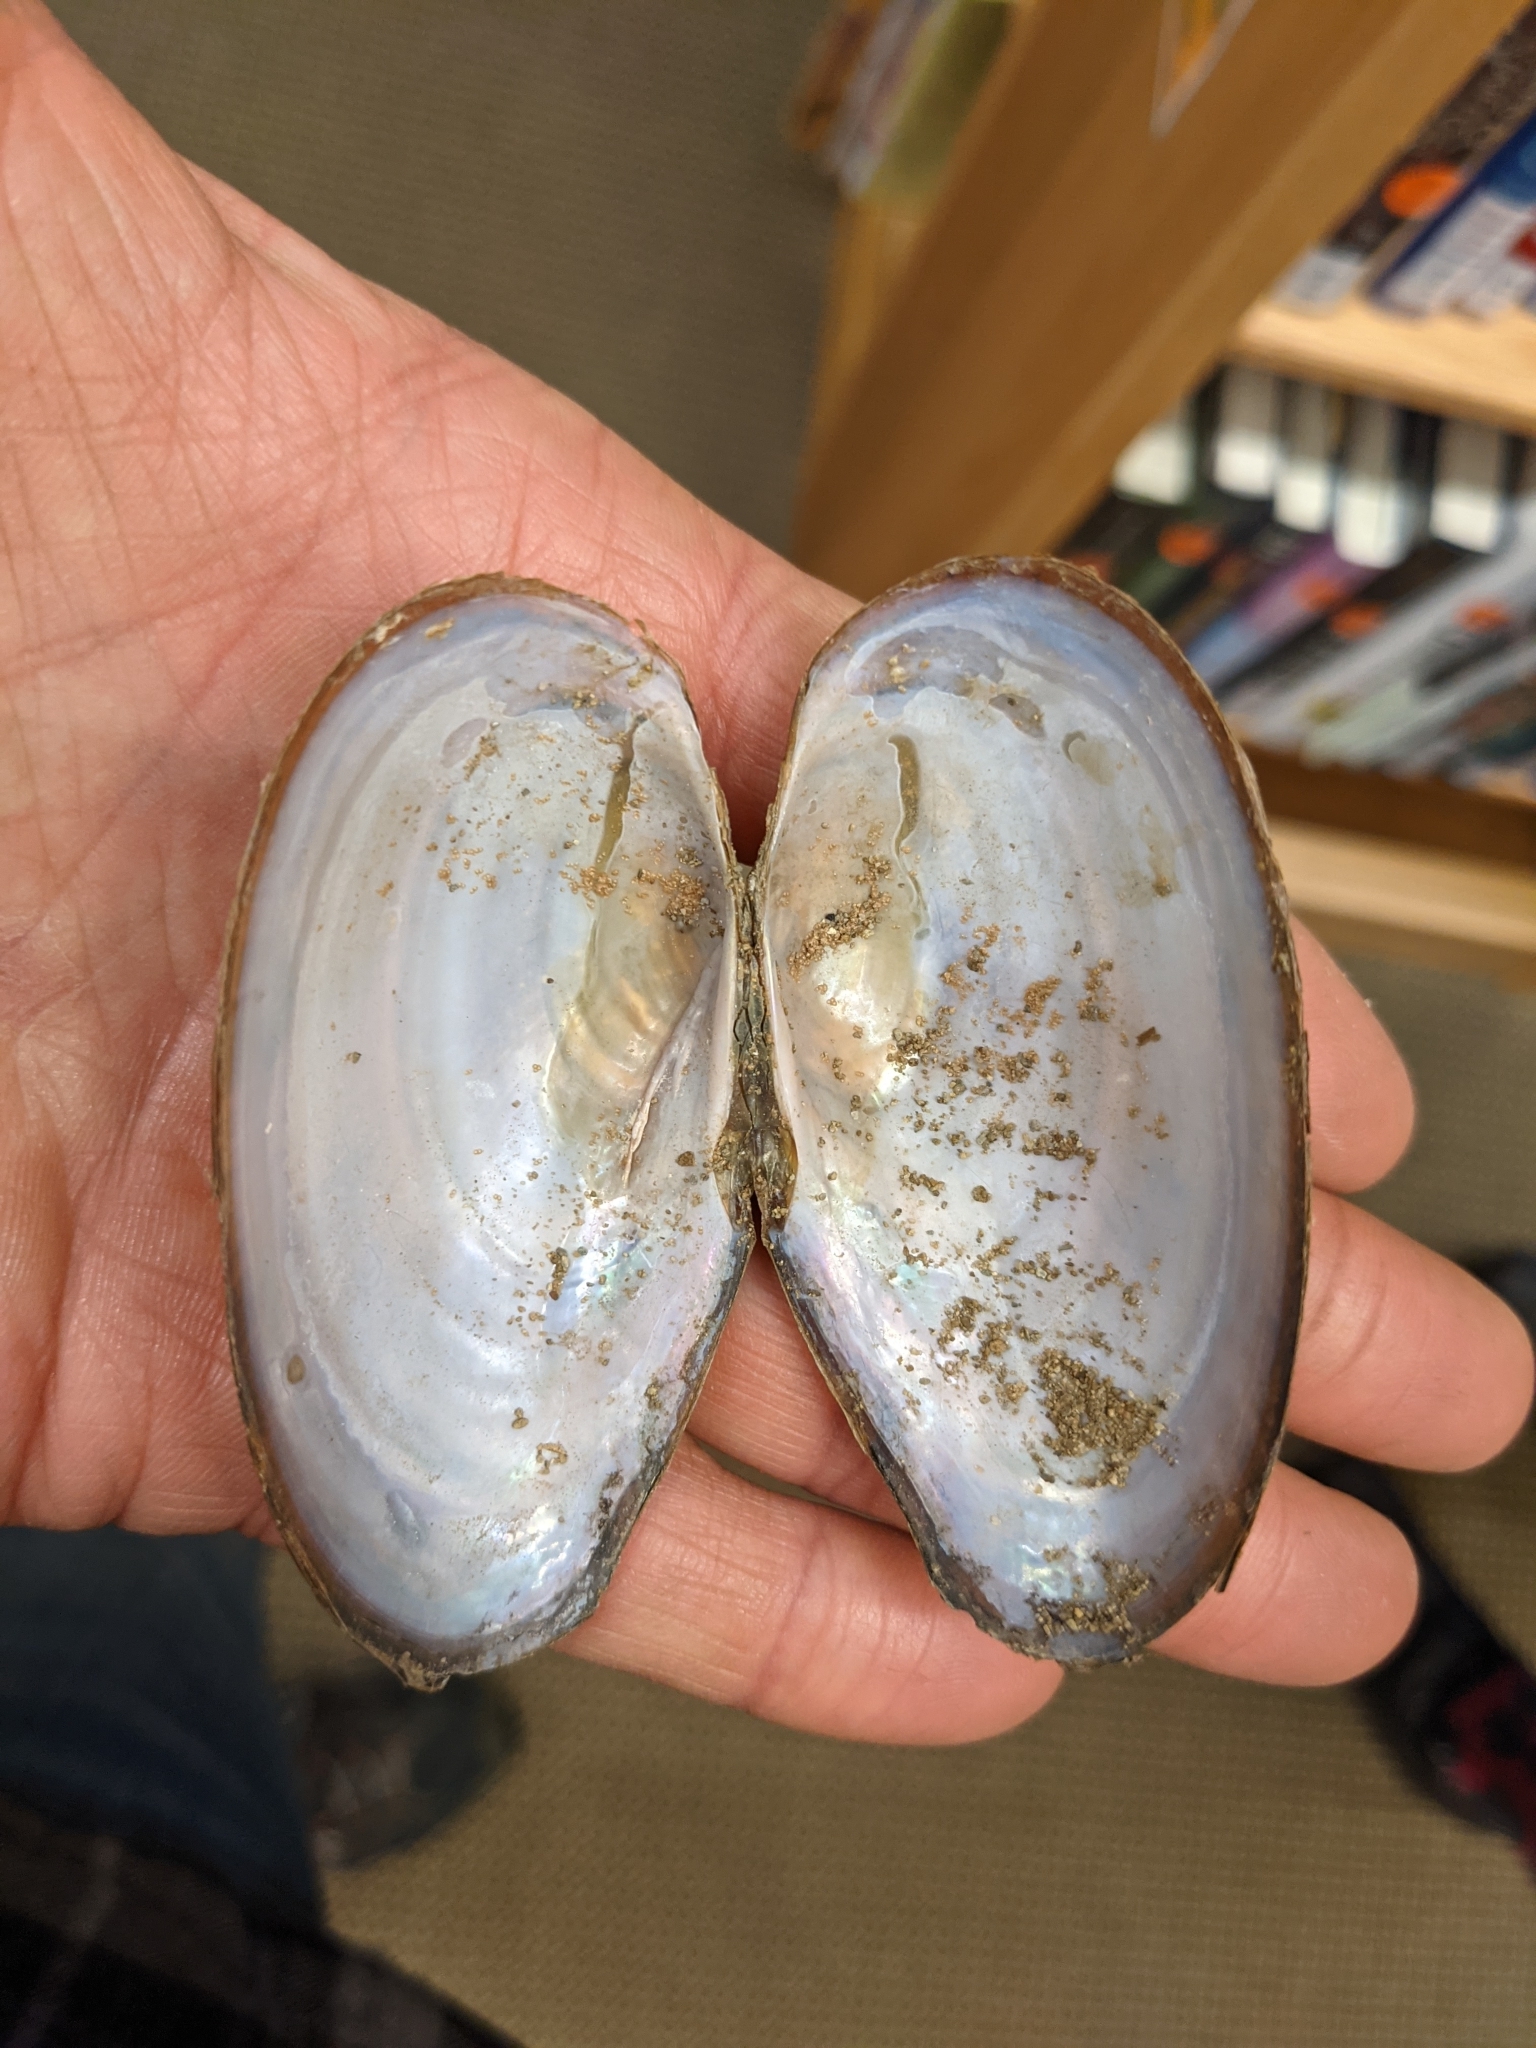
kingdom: Animalia
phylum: Mollusca
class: Bivalvia
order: Unionida
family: Unionidae
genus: Pyganodon
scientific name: Pyganodon cataracta
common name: Eastern floater
